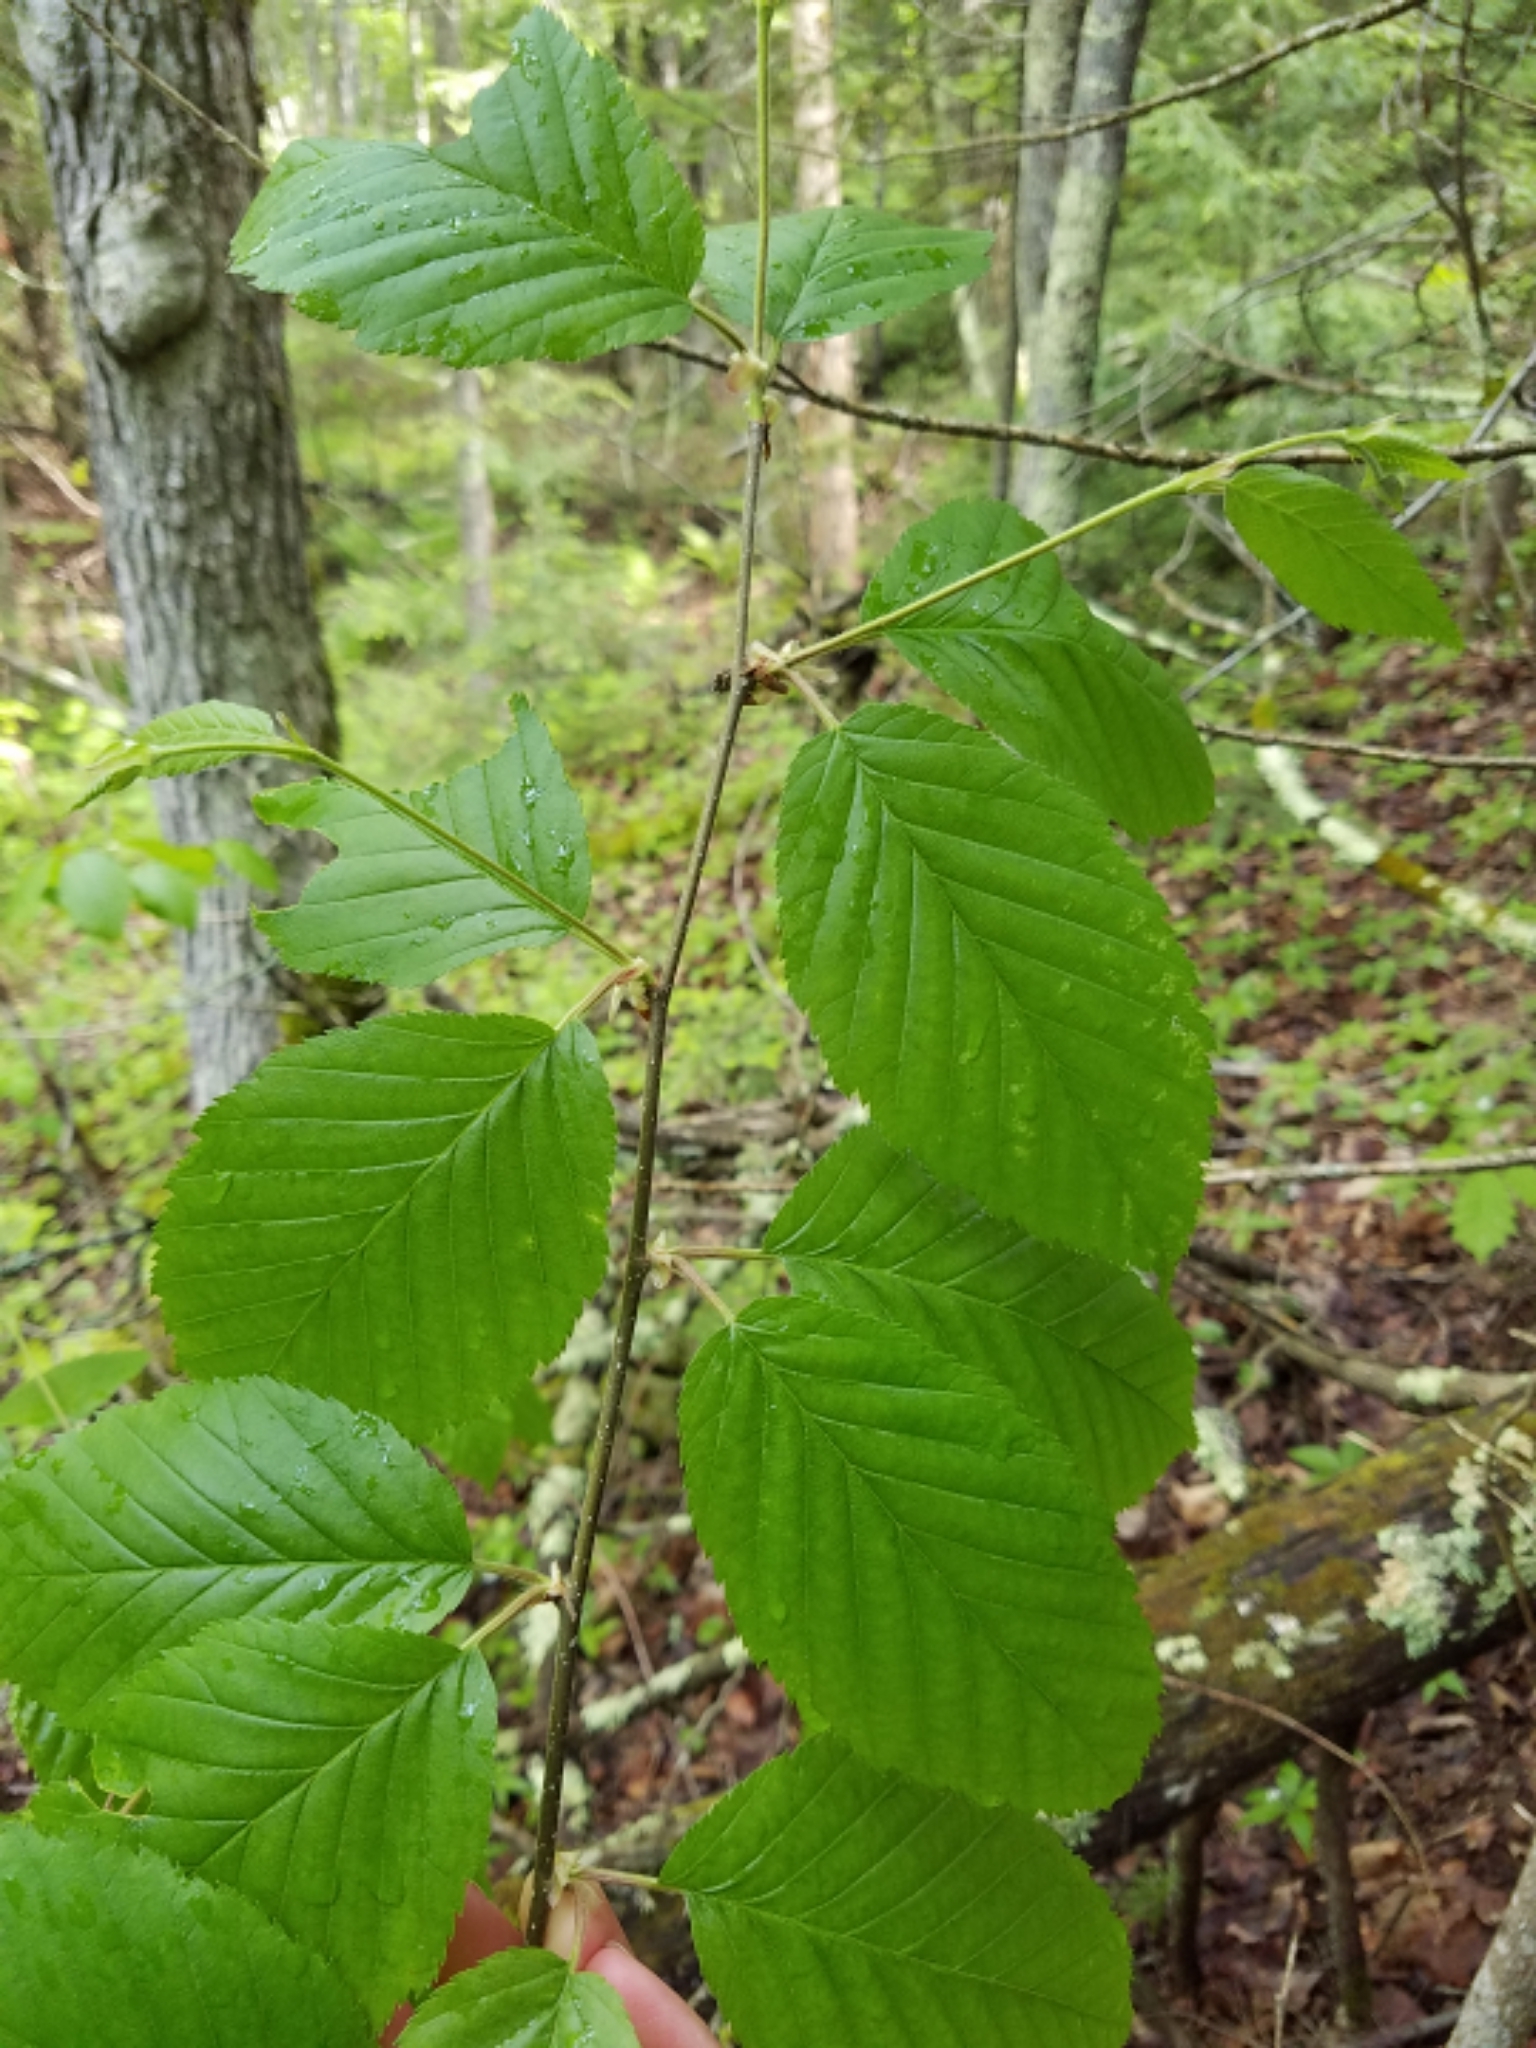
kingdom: Plantae
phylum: Tracheophyta
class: Magnoliopsida
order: Fagales
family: Betulaceae
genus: Betula
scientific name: Betula alleghaniensis
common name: Yellow birch
